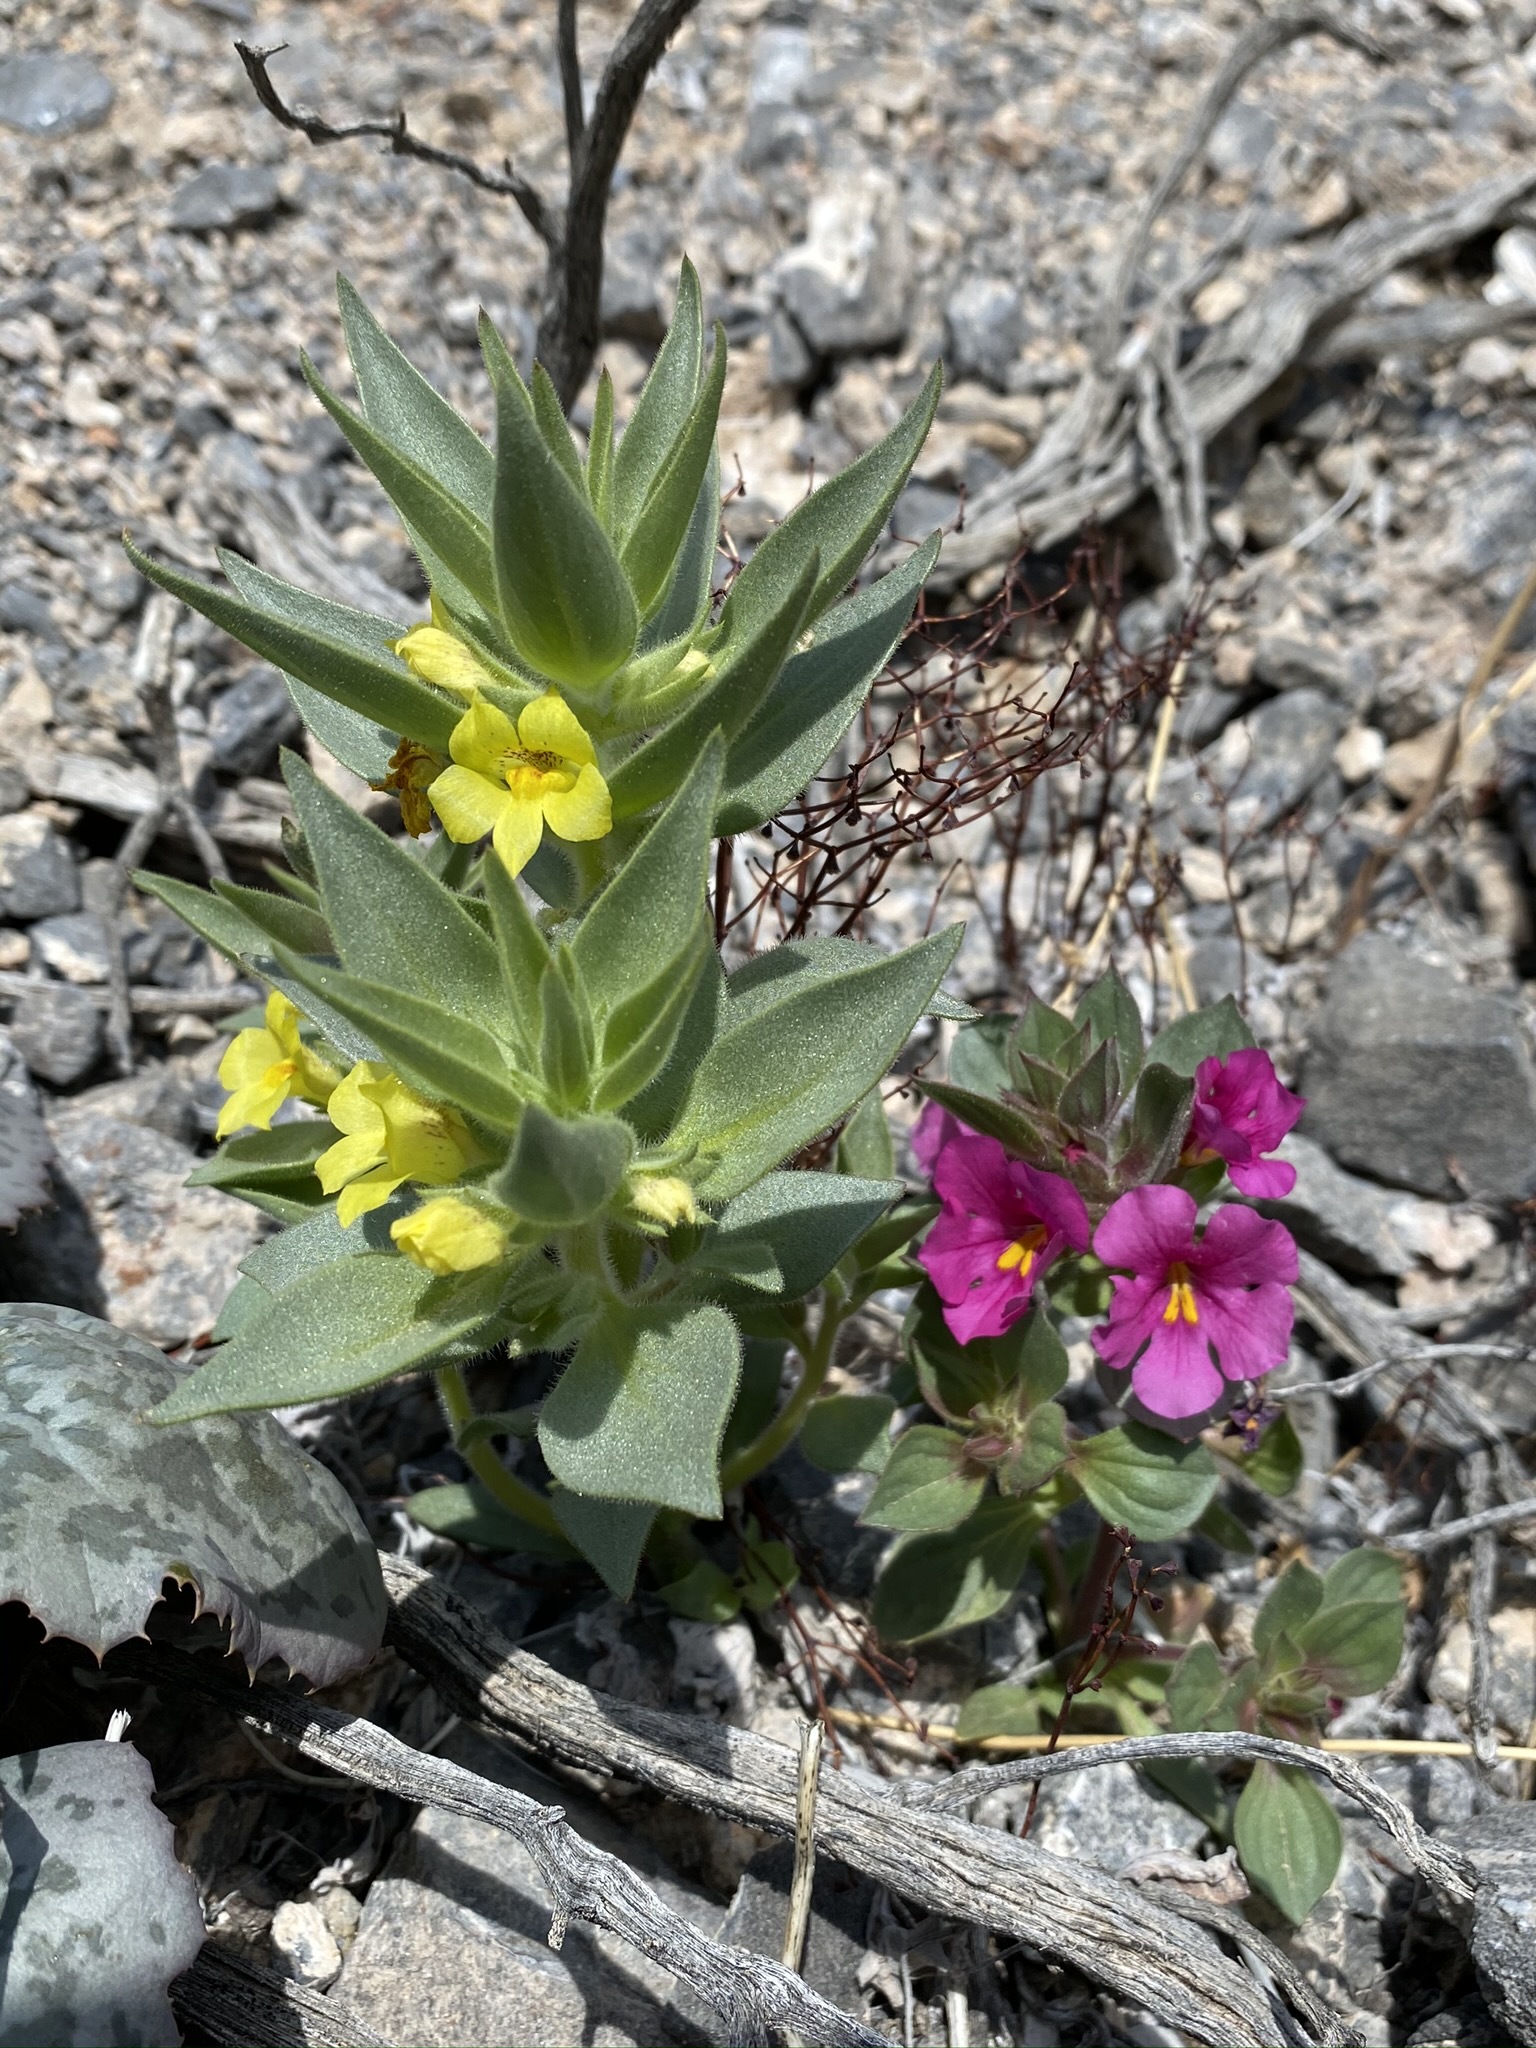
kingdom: Plantae
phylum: Tracheophyta
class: Magnoliopsida
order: Lamiales
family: Plantaginaceae
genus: Mohavea
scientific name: Mohavea breviflora
